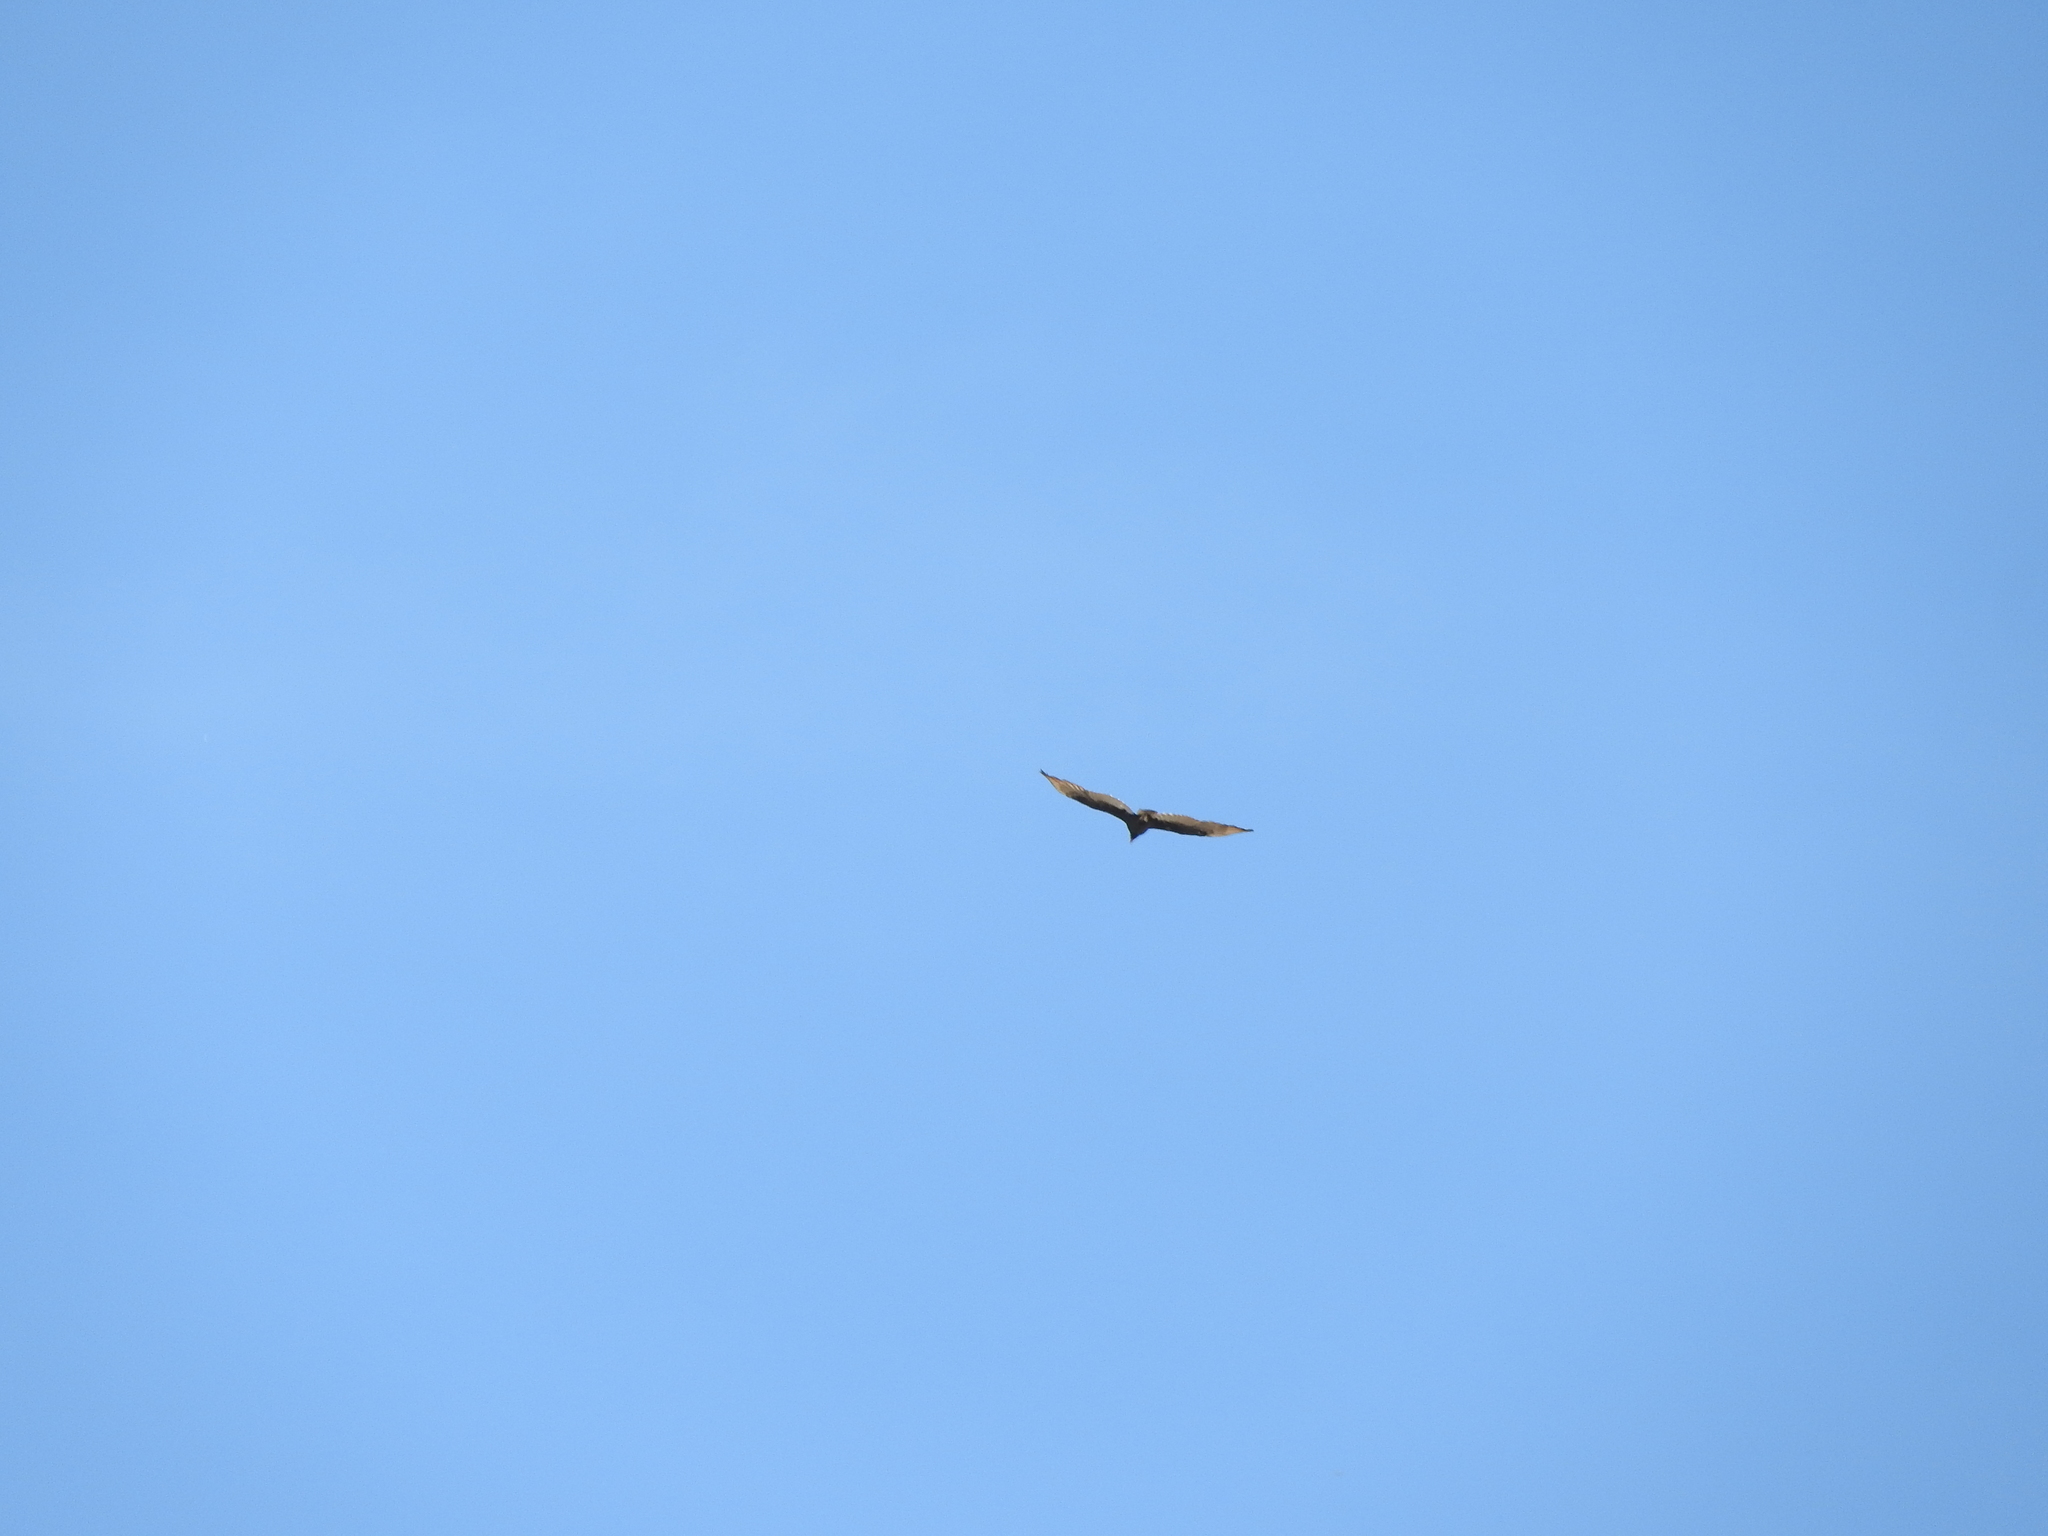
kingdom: Animalia
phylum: Chordata
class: Aves
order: Accipitriformes
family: Cathartidae
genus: Cathartes
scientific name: Cathartes aura
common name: Turkey vulture
